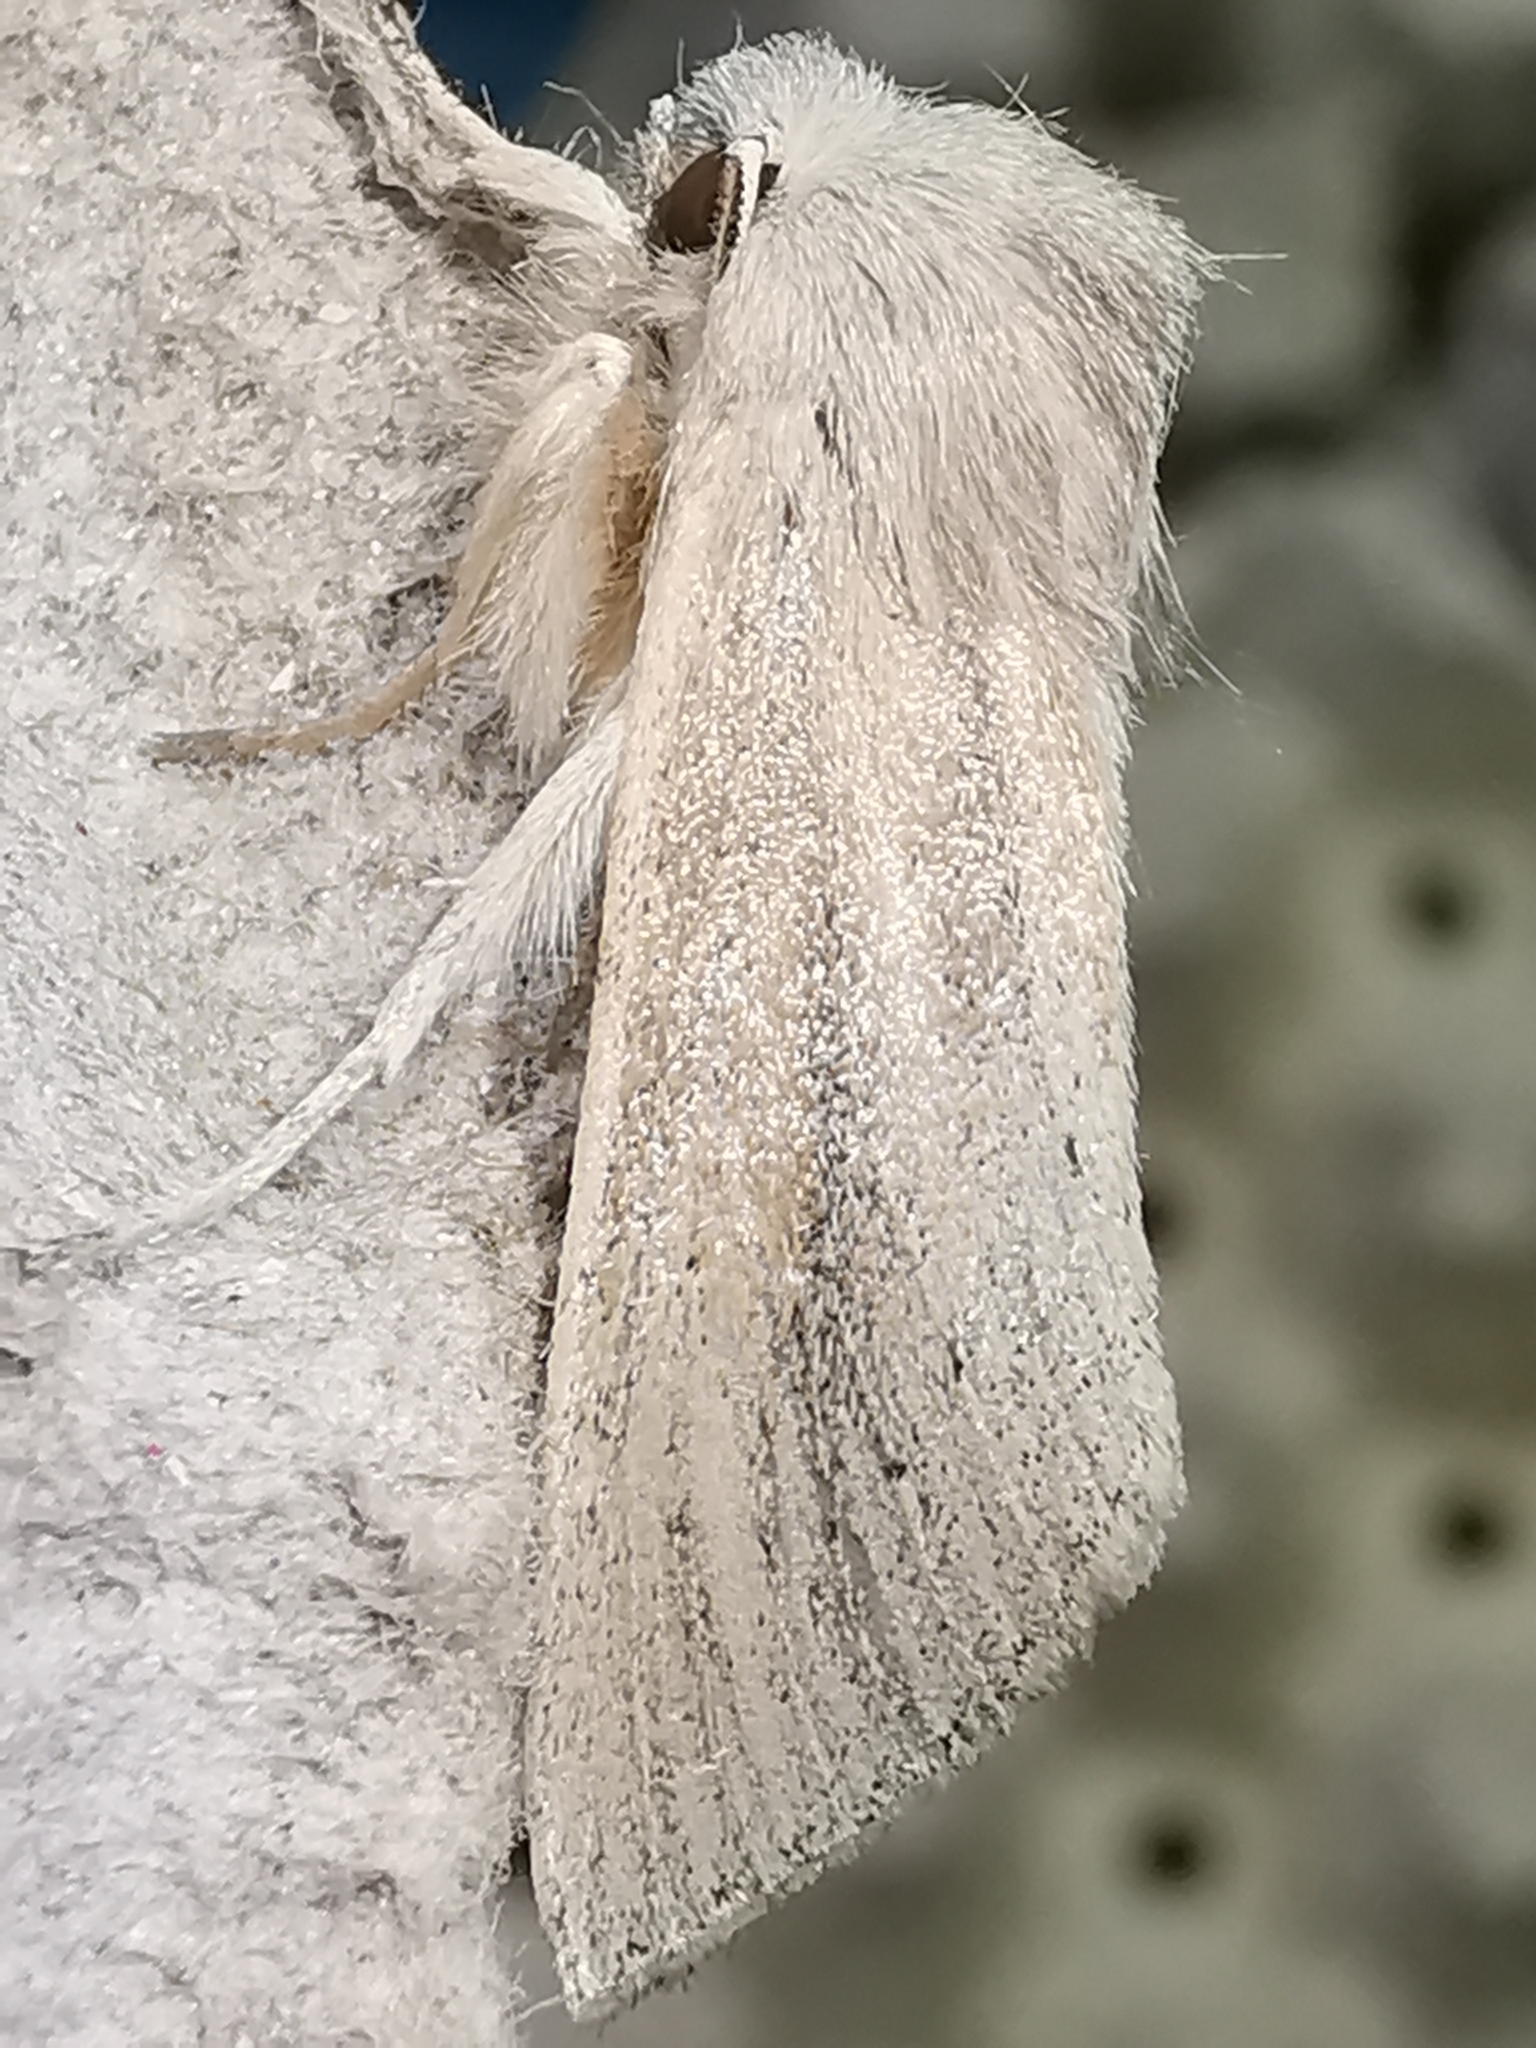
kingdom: Animalia
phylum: Arthropoda
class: Insecta
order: Lepidoptera
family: Noctuidae
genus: Rhizedra
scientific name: Rhizedra lutosa
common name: Large wainscot
